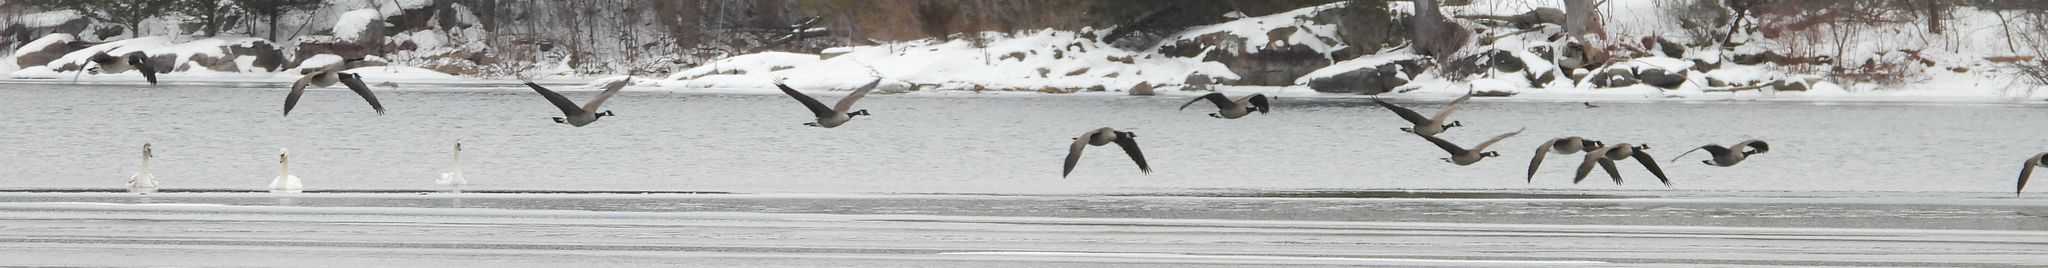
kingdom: Animalia
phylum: Chordata
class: Aves
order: Anseriformes
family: Anatidae
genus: Branta
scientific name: Branta canadensis
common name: Canada goose
